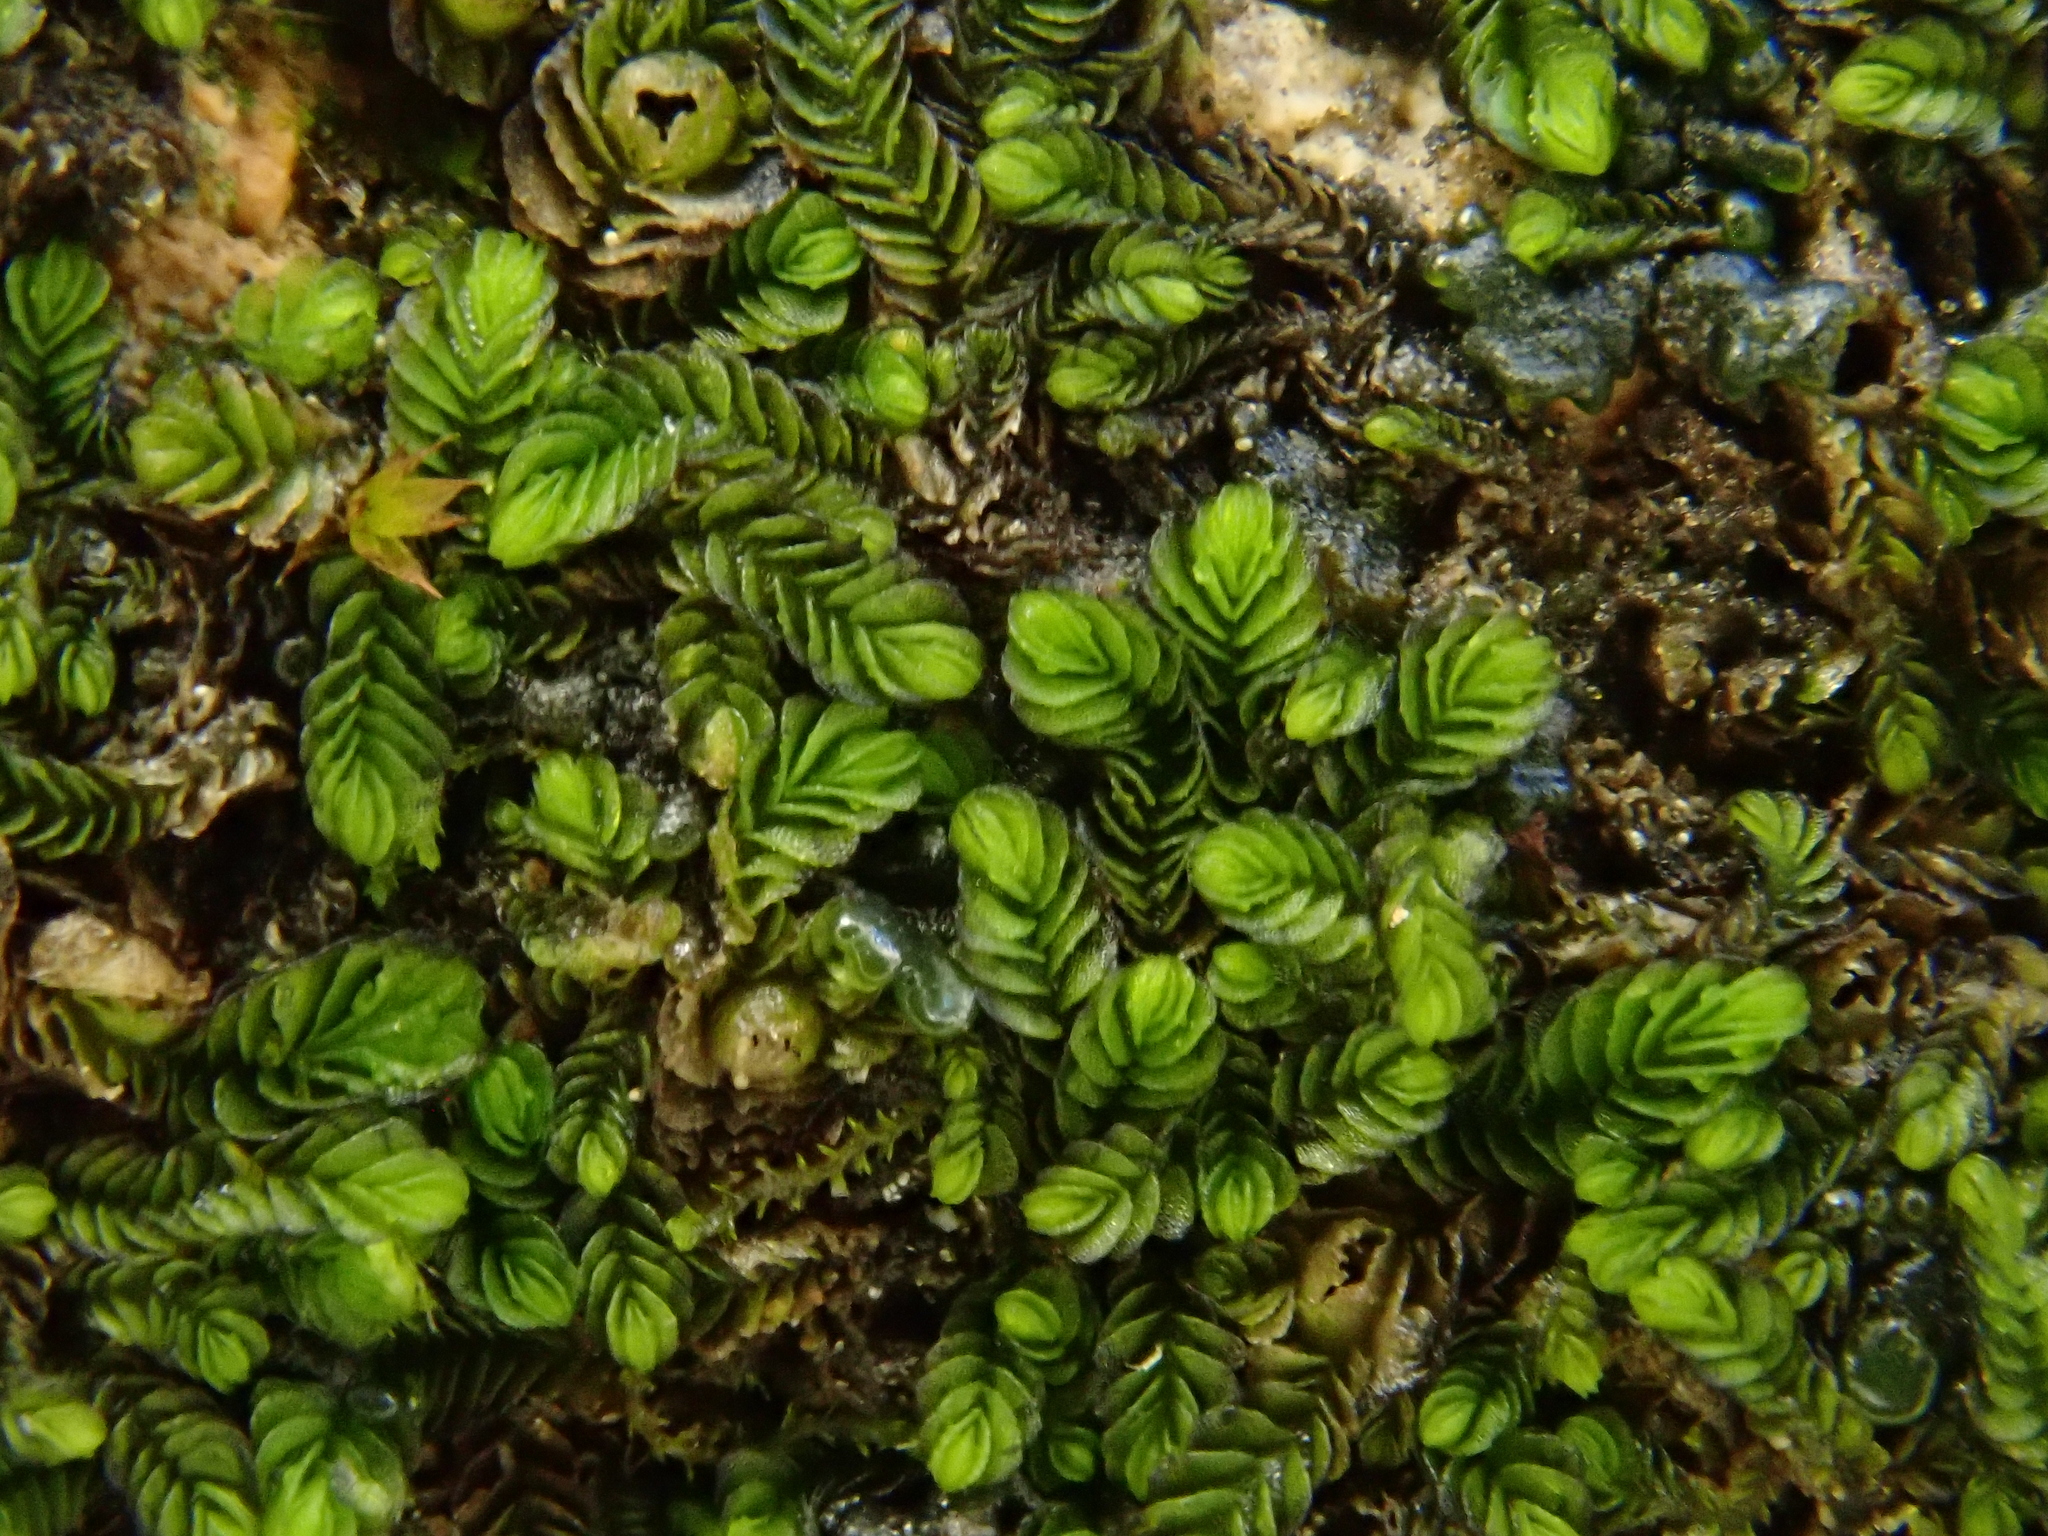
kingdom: Plantae
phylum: Marchantiophyta
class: Jungermanniopsida
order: Jungermanniales
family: Southbyaceae
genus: Southbya
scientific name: Southbya tophacea
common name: Green blackwort
